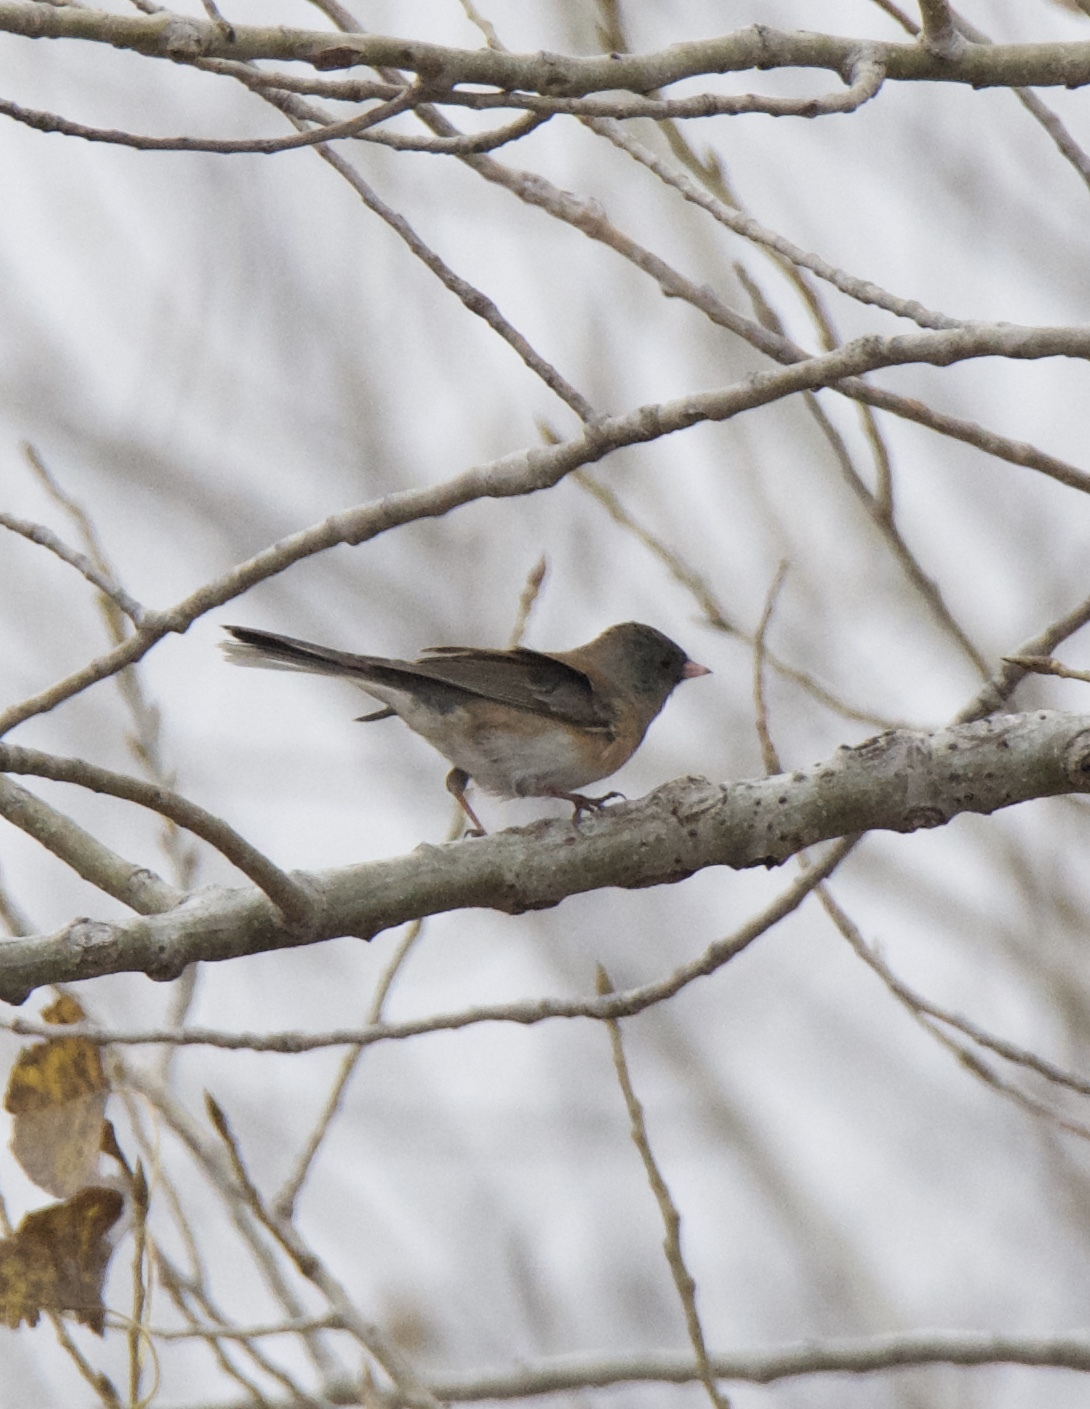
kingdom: Animalia
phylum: Chordata
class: Aves
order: Passeriformes
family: Passerellidae
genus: Junco
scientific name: Junco hyemalis
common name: Dark-eyed junco
